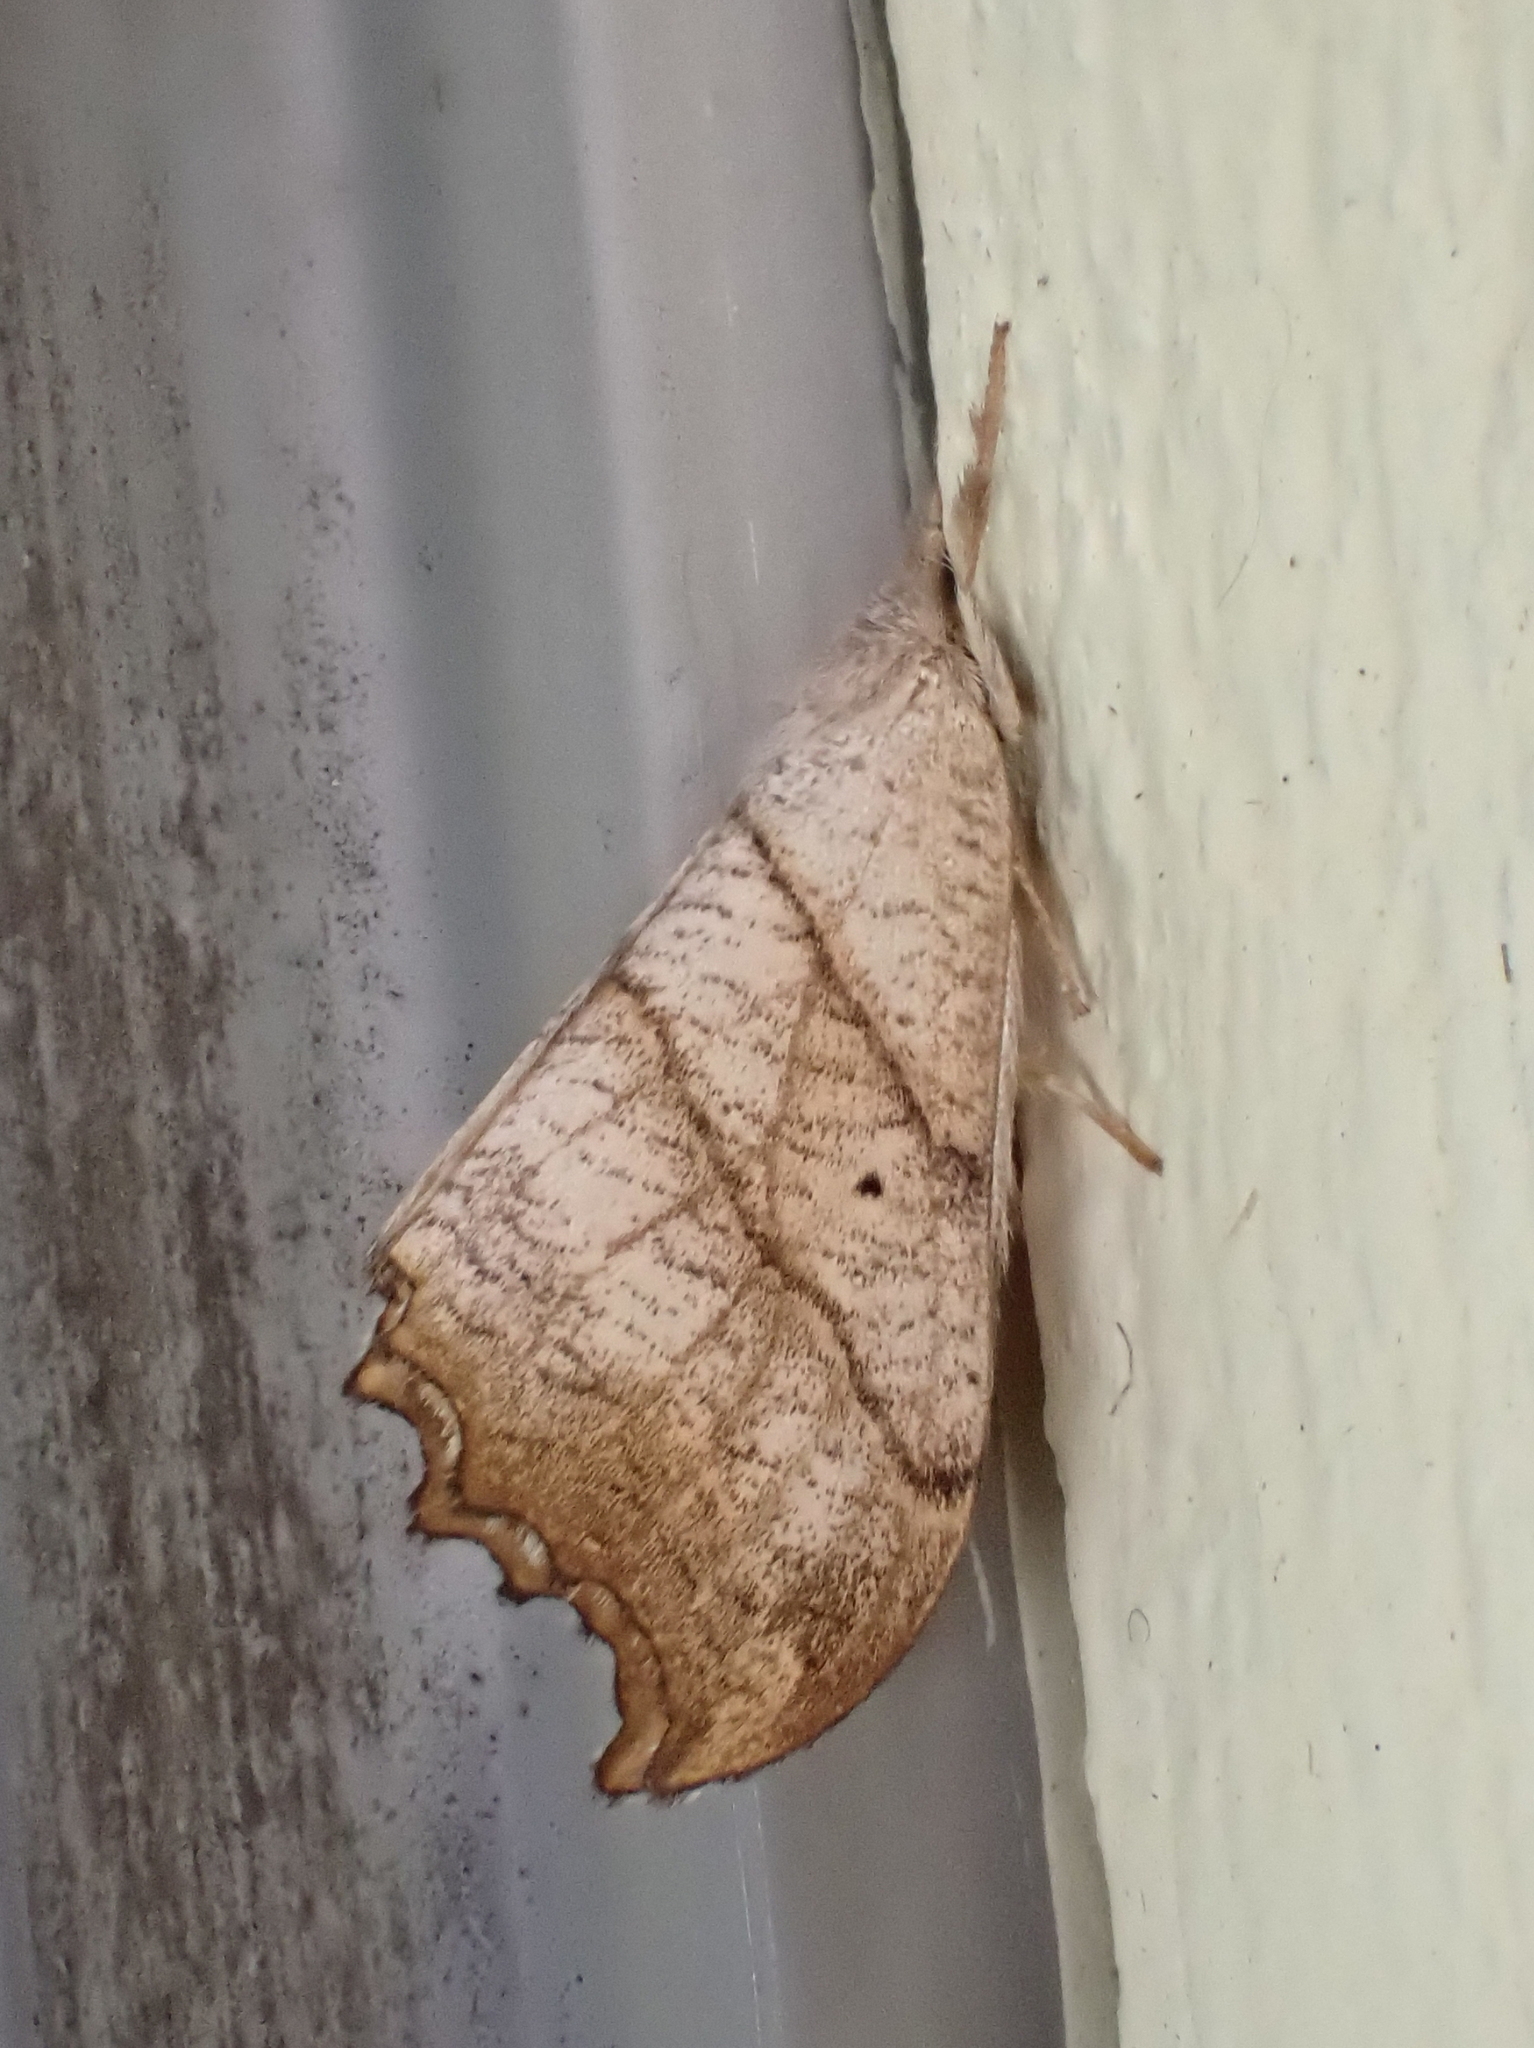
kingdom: Animalia
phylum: Arthropoda
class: Insecta
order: Lepidoptera
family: Drepanidae
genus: Falcaria
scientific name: Falcaria bilineata
